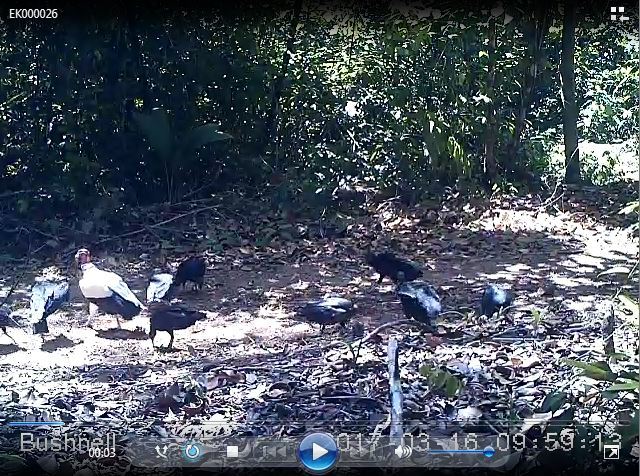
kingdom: Animalia
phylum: Chordata
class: Aves
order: Accipitriformes
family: Cathartidae
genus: Sarcoramphus
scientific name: Sarcoramphus papa
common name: King vulture
